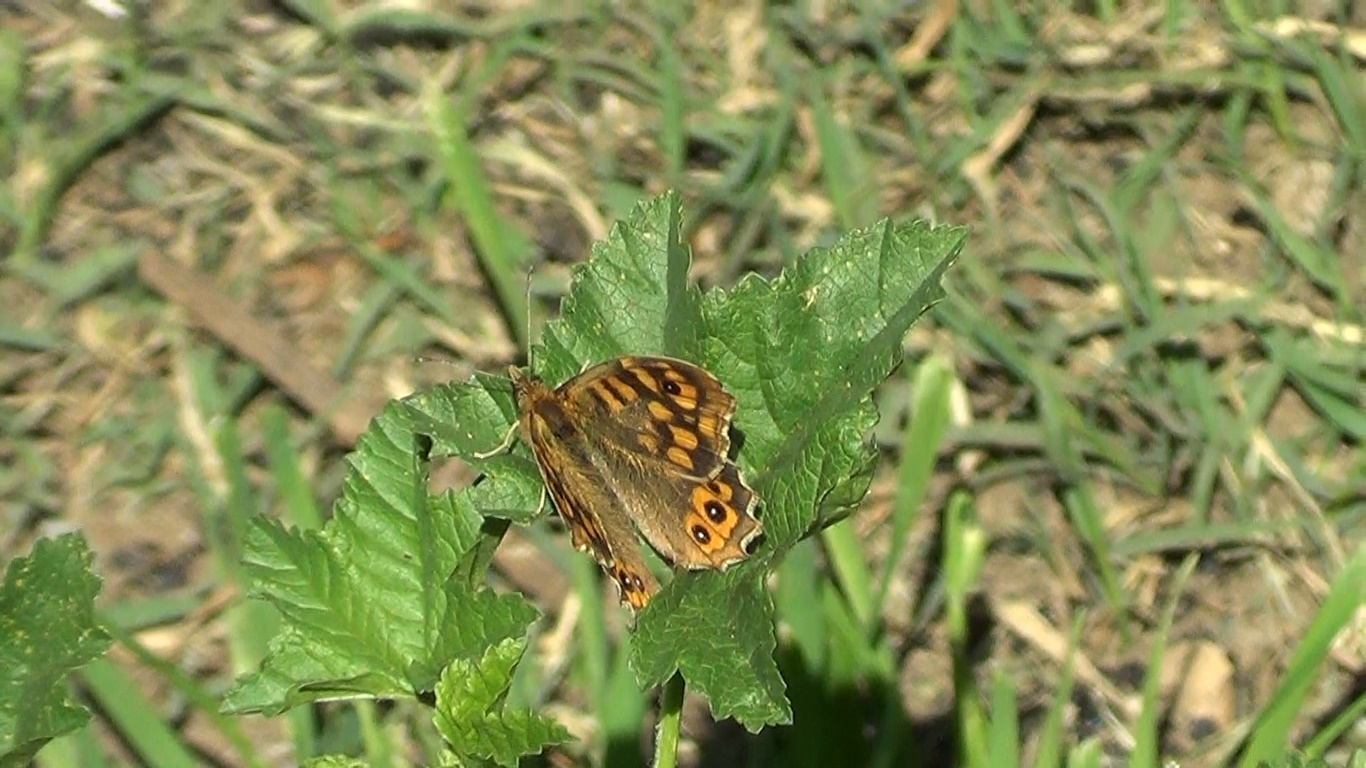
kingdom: Animalia
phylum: Arthropoda
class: Insecta
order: Lepidoptera
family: Nymphalidae
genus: Pararge
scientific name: Pararge aegeria
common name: Speckled wood
